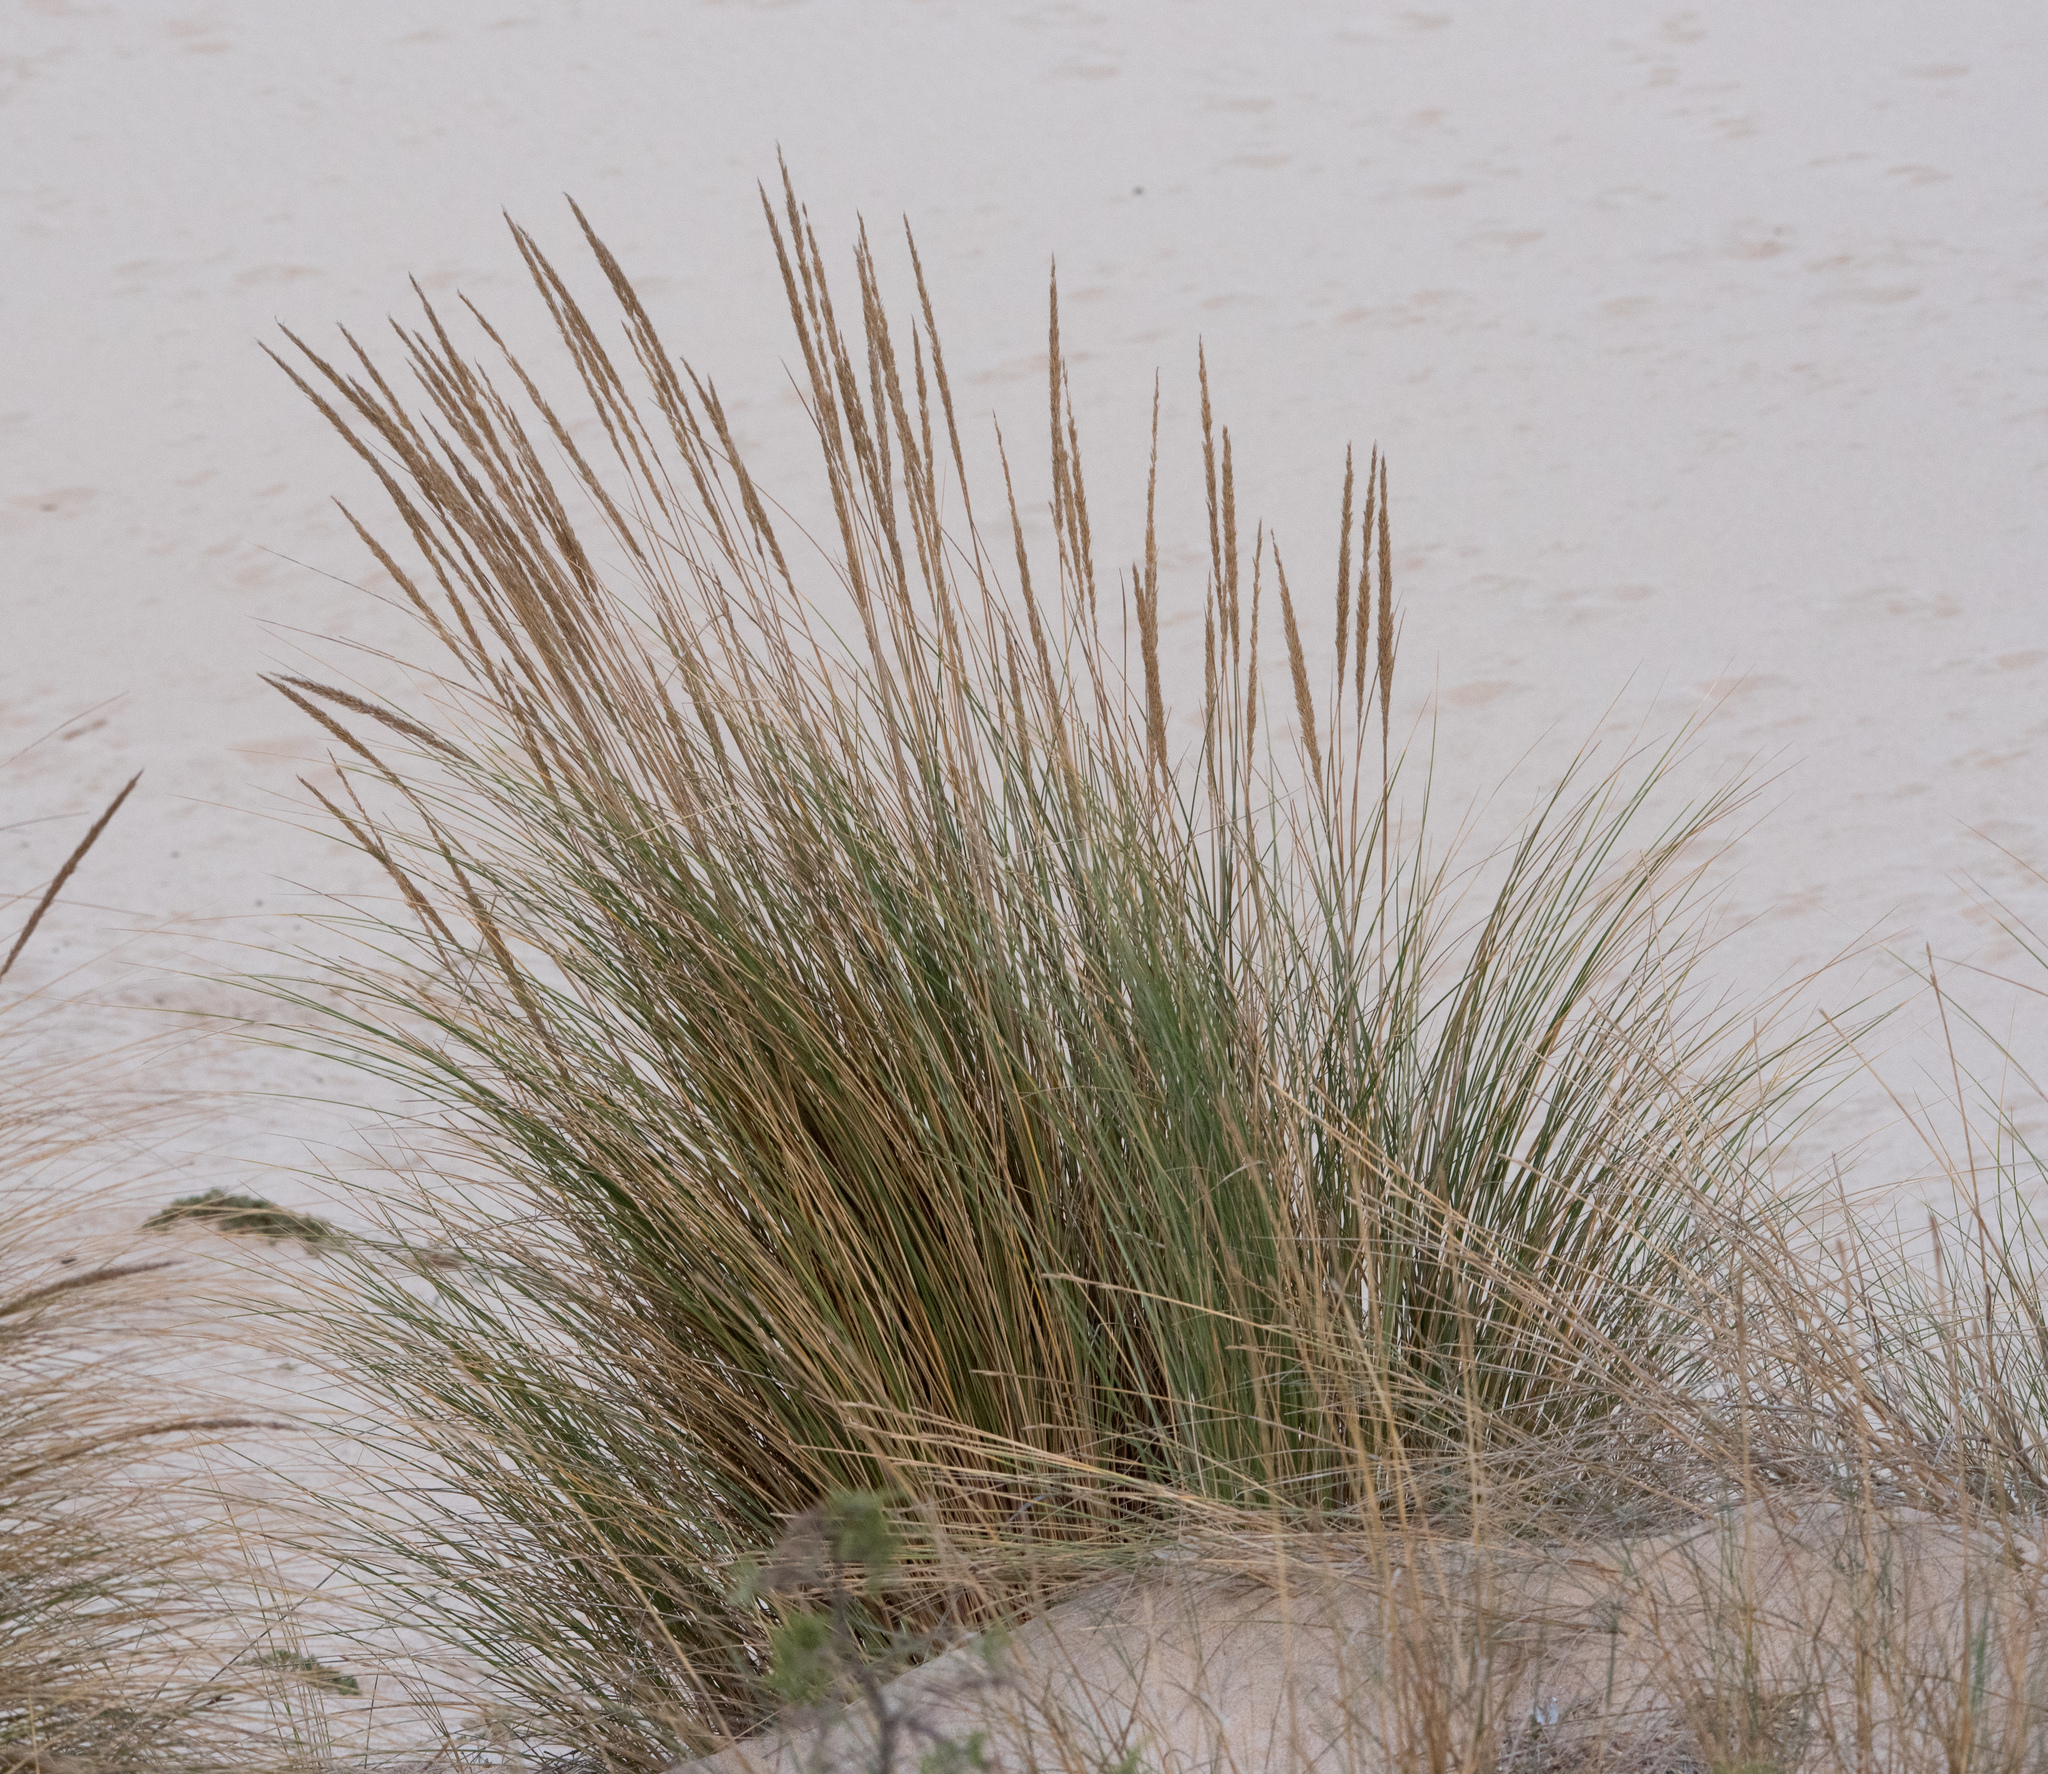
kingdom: Plantae
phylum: Tracheophyta
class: Liliopsida
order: Poales
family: Poaceae
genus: Calamagrostis
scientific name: Calamagrostis arenaria
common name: European beachgrass
